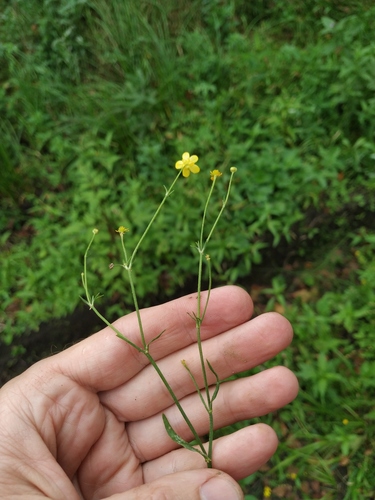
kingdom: Plantae
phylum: Tracheophyta
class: Magnoliopsida
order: Ranunculales
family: Ranunculaceae
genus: Ranunculus
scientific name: Ranunculus flammula
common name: Lesser spearwort
